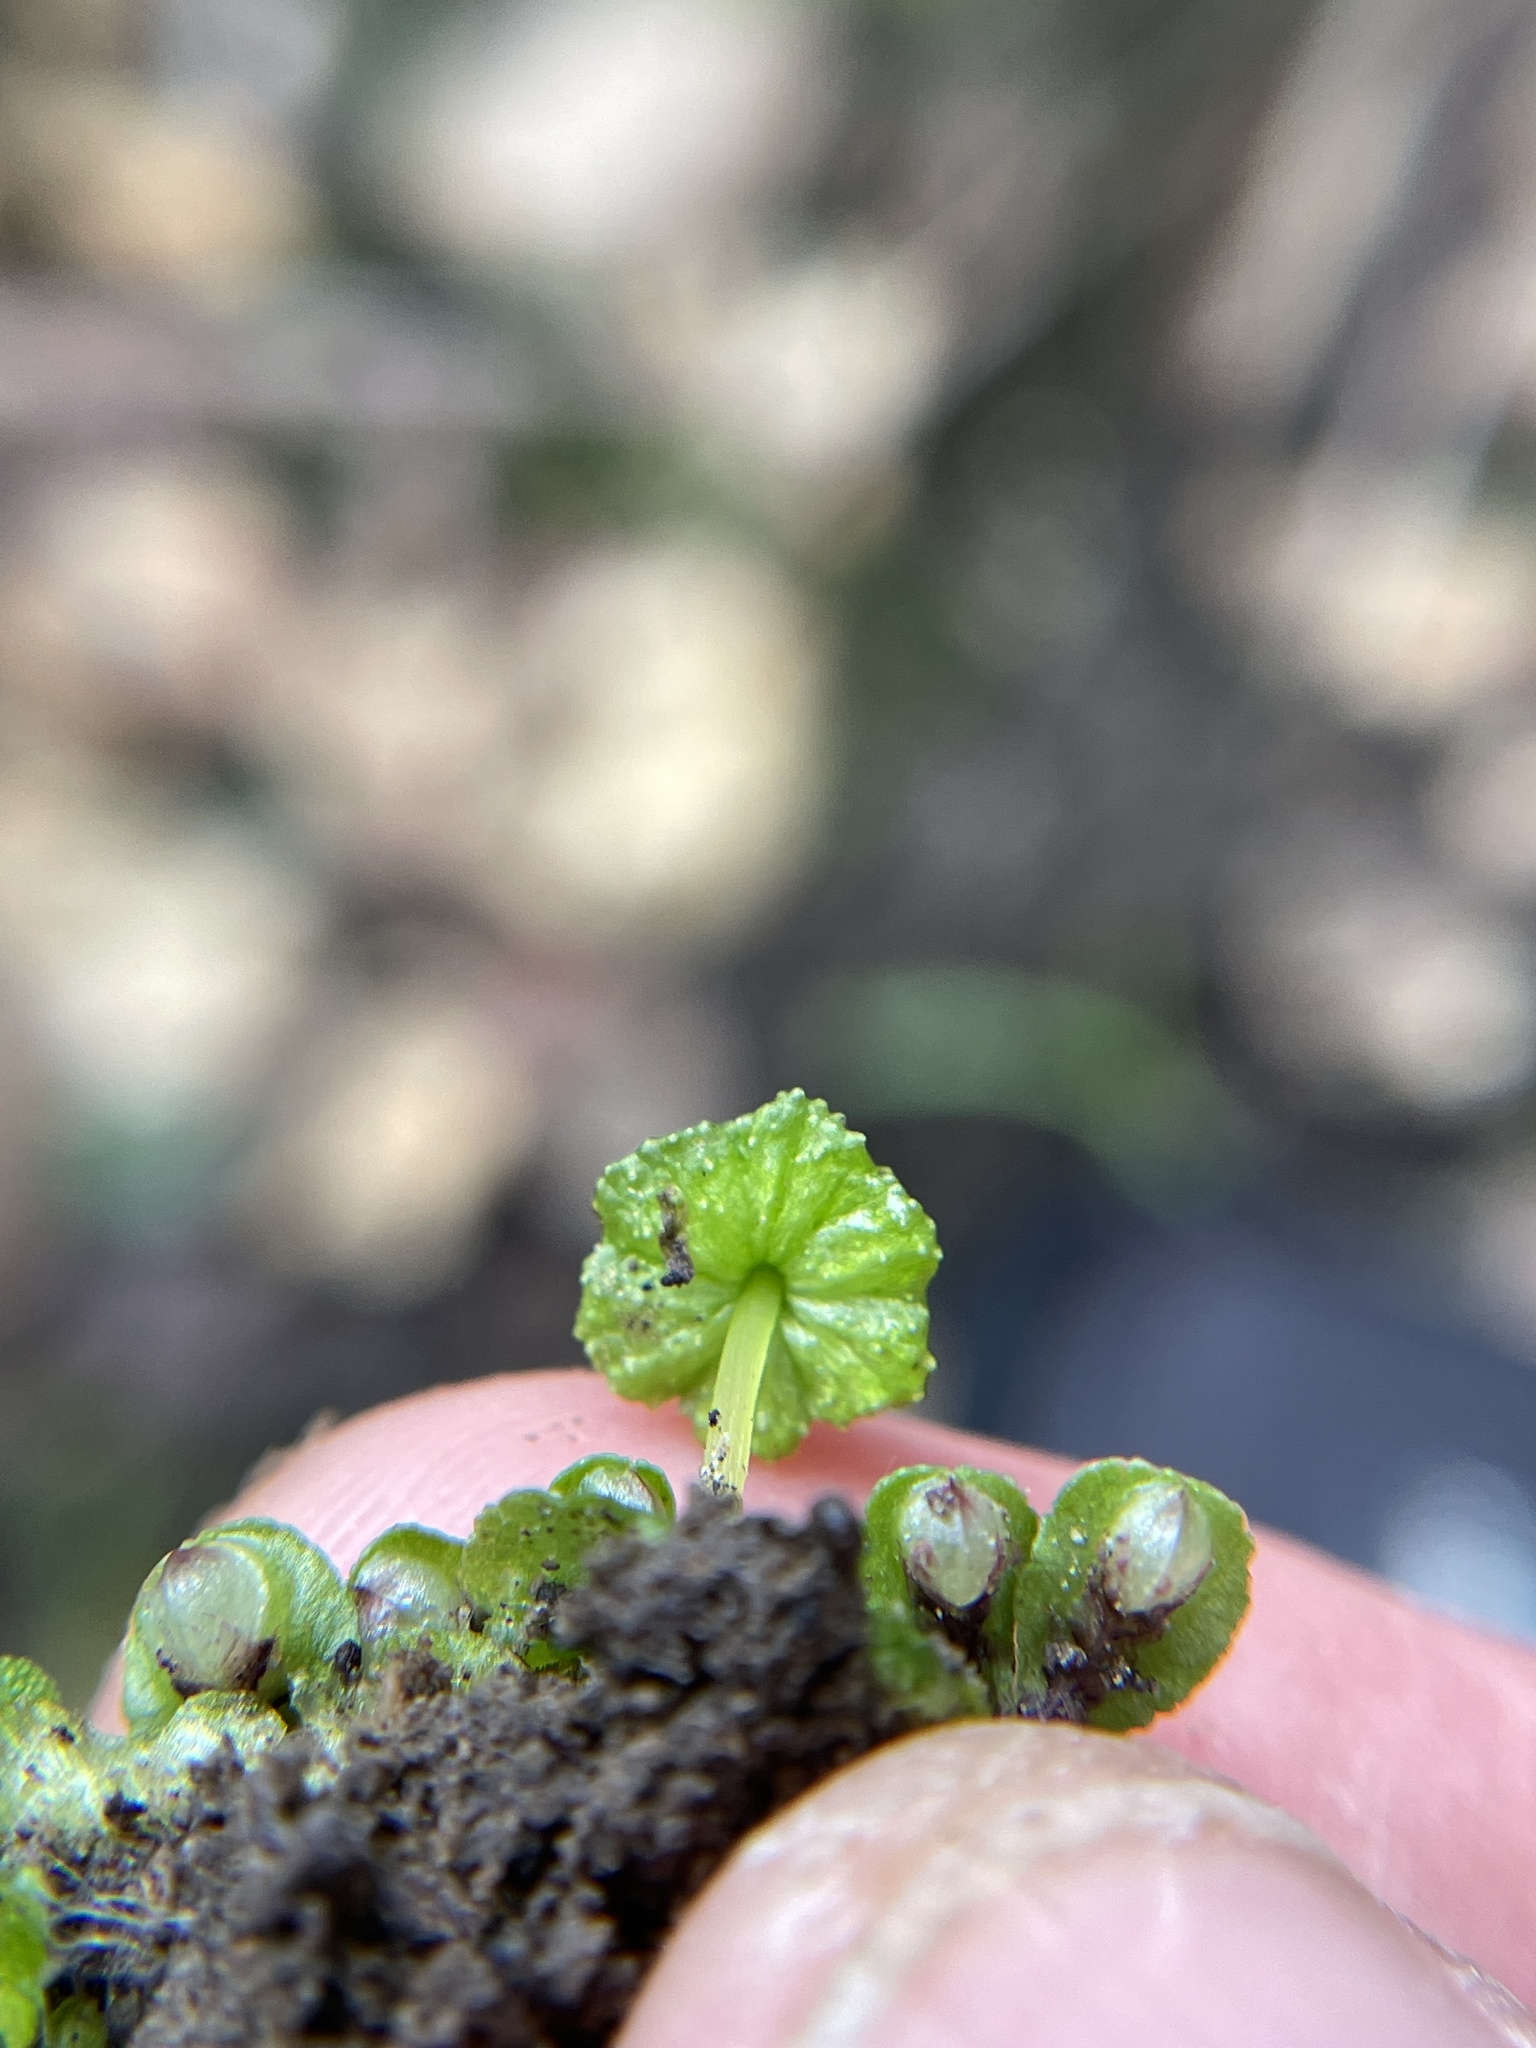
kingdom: Plantae
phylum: Marchantiophyta
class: Marchantiopsida
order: Marchantiales
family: Aytoniaceae
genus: Cryptomitrium
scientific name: Cryptomitrium tenerum
